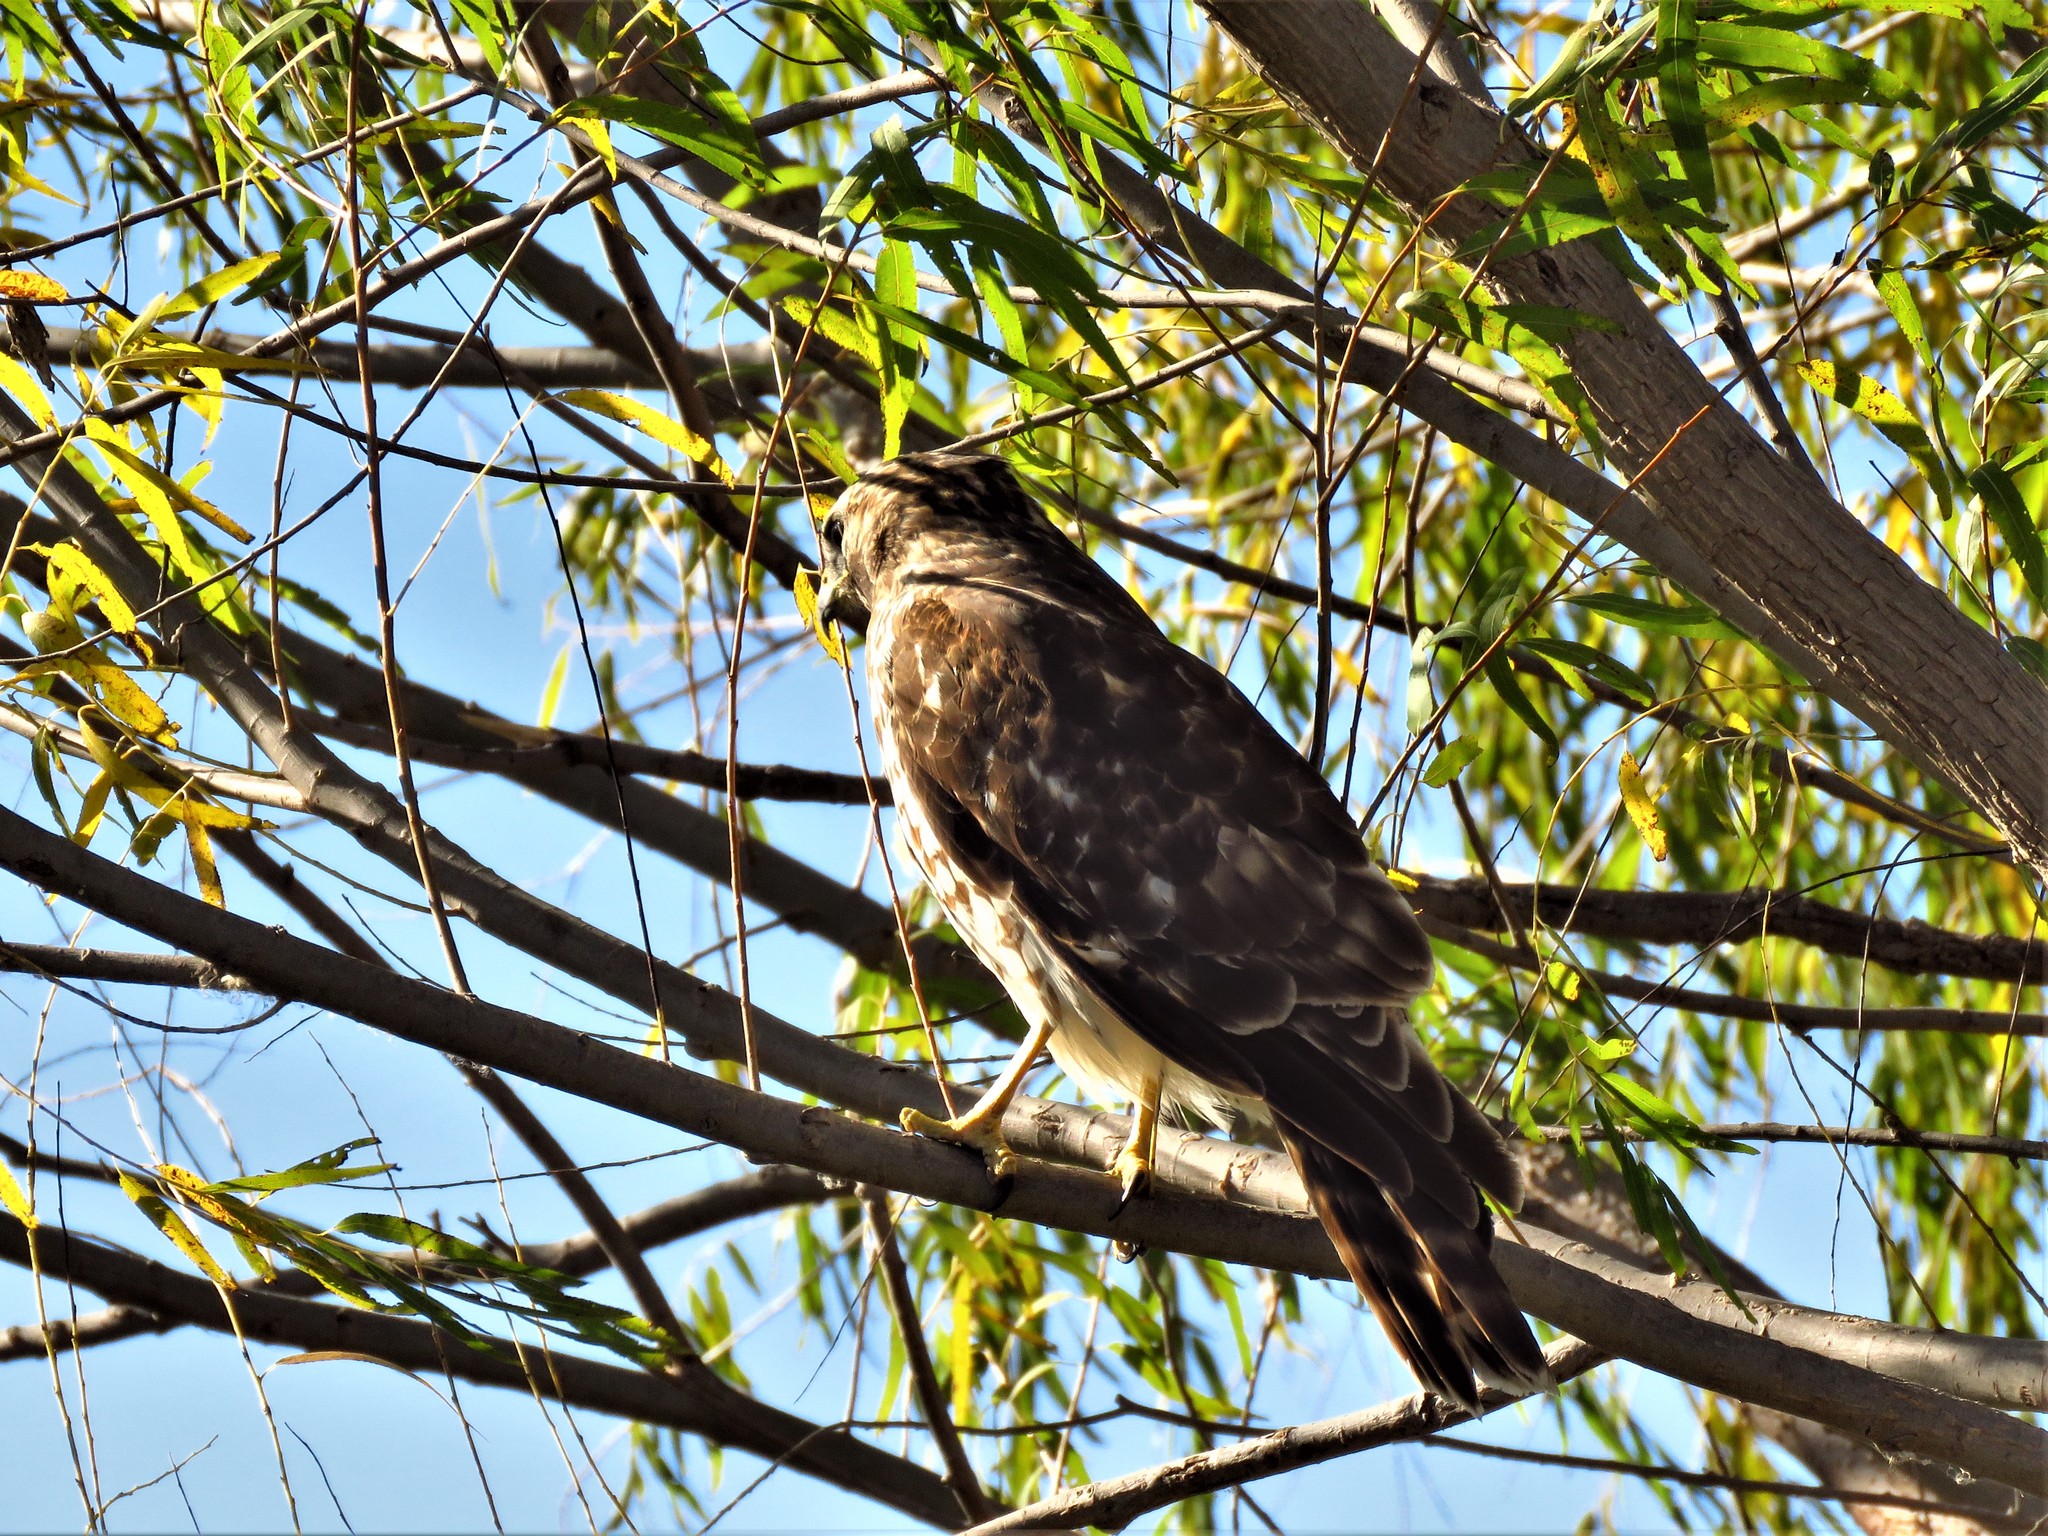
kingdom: Animalia
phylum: Chordata
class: Aves
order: Accipitriformes
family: Accipitridae
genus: Buteo
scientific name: Buteo lineatus
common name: Red-shouldered hawk
